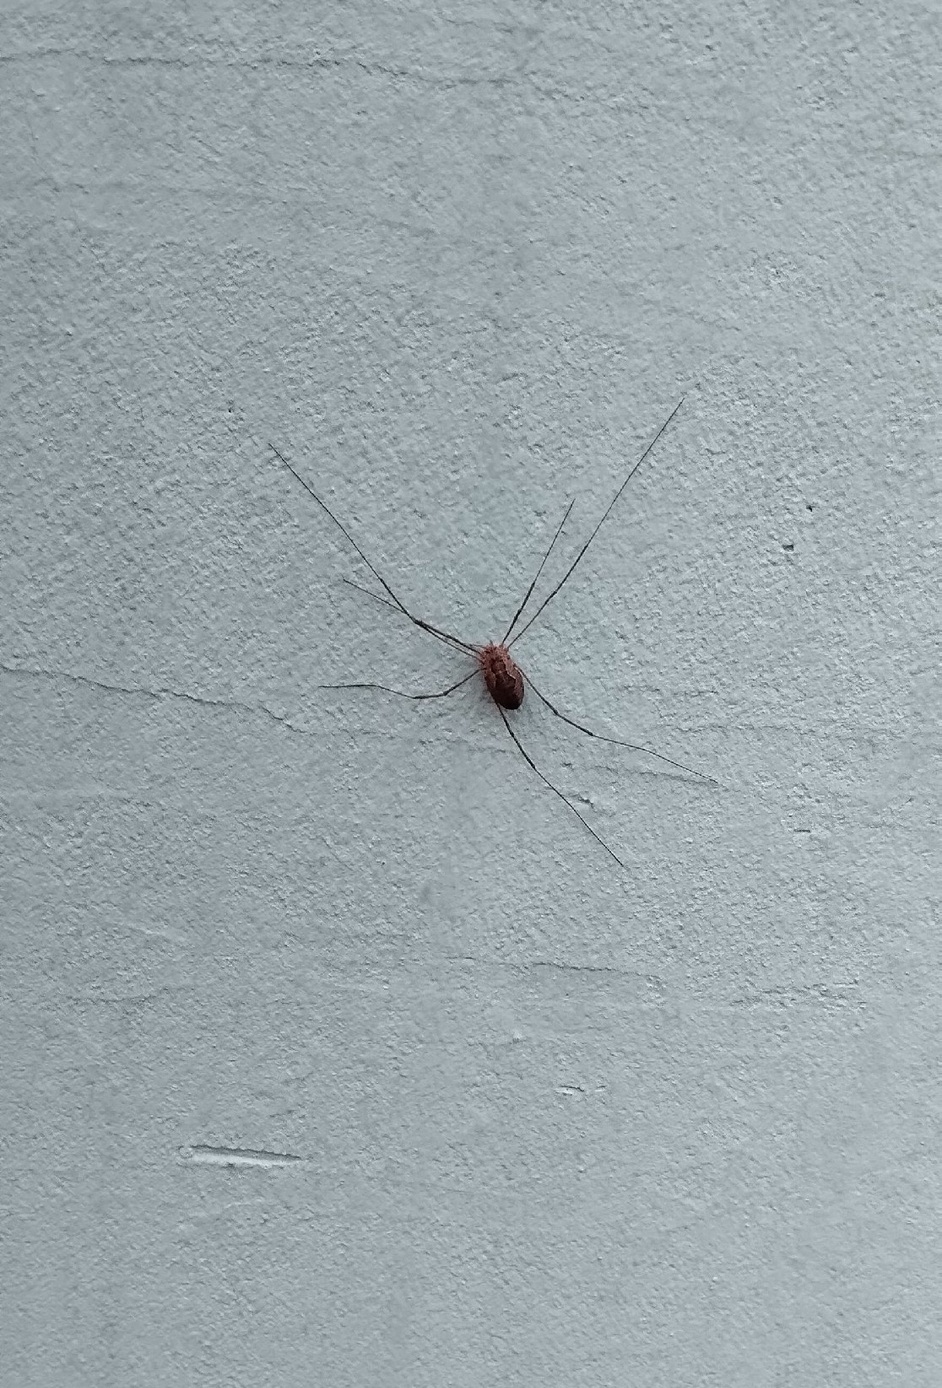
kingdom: Animalia
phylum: Arthropoda
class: Arachnida
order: Opiliones
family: Phalangiidae
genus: Phalangium
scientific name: Phalangium opilio
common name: Daddy longleg
